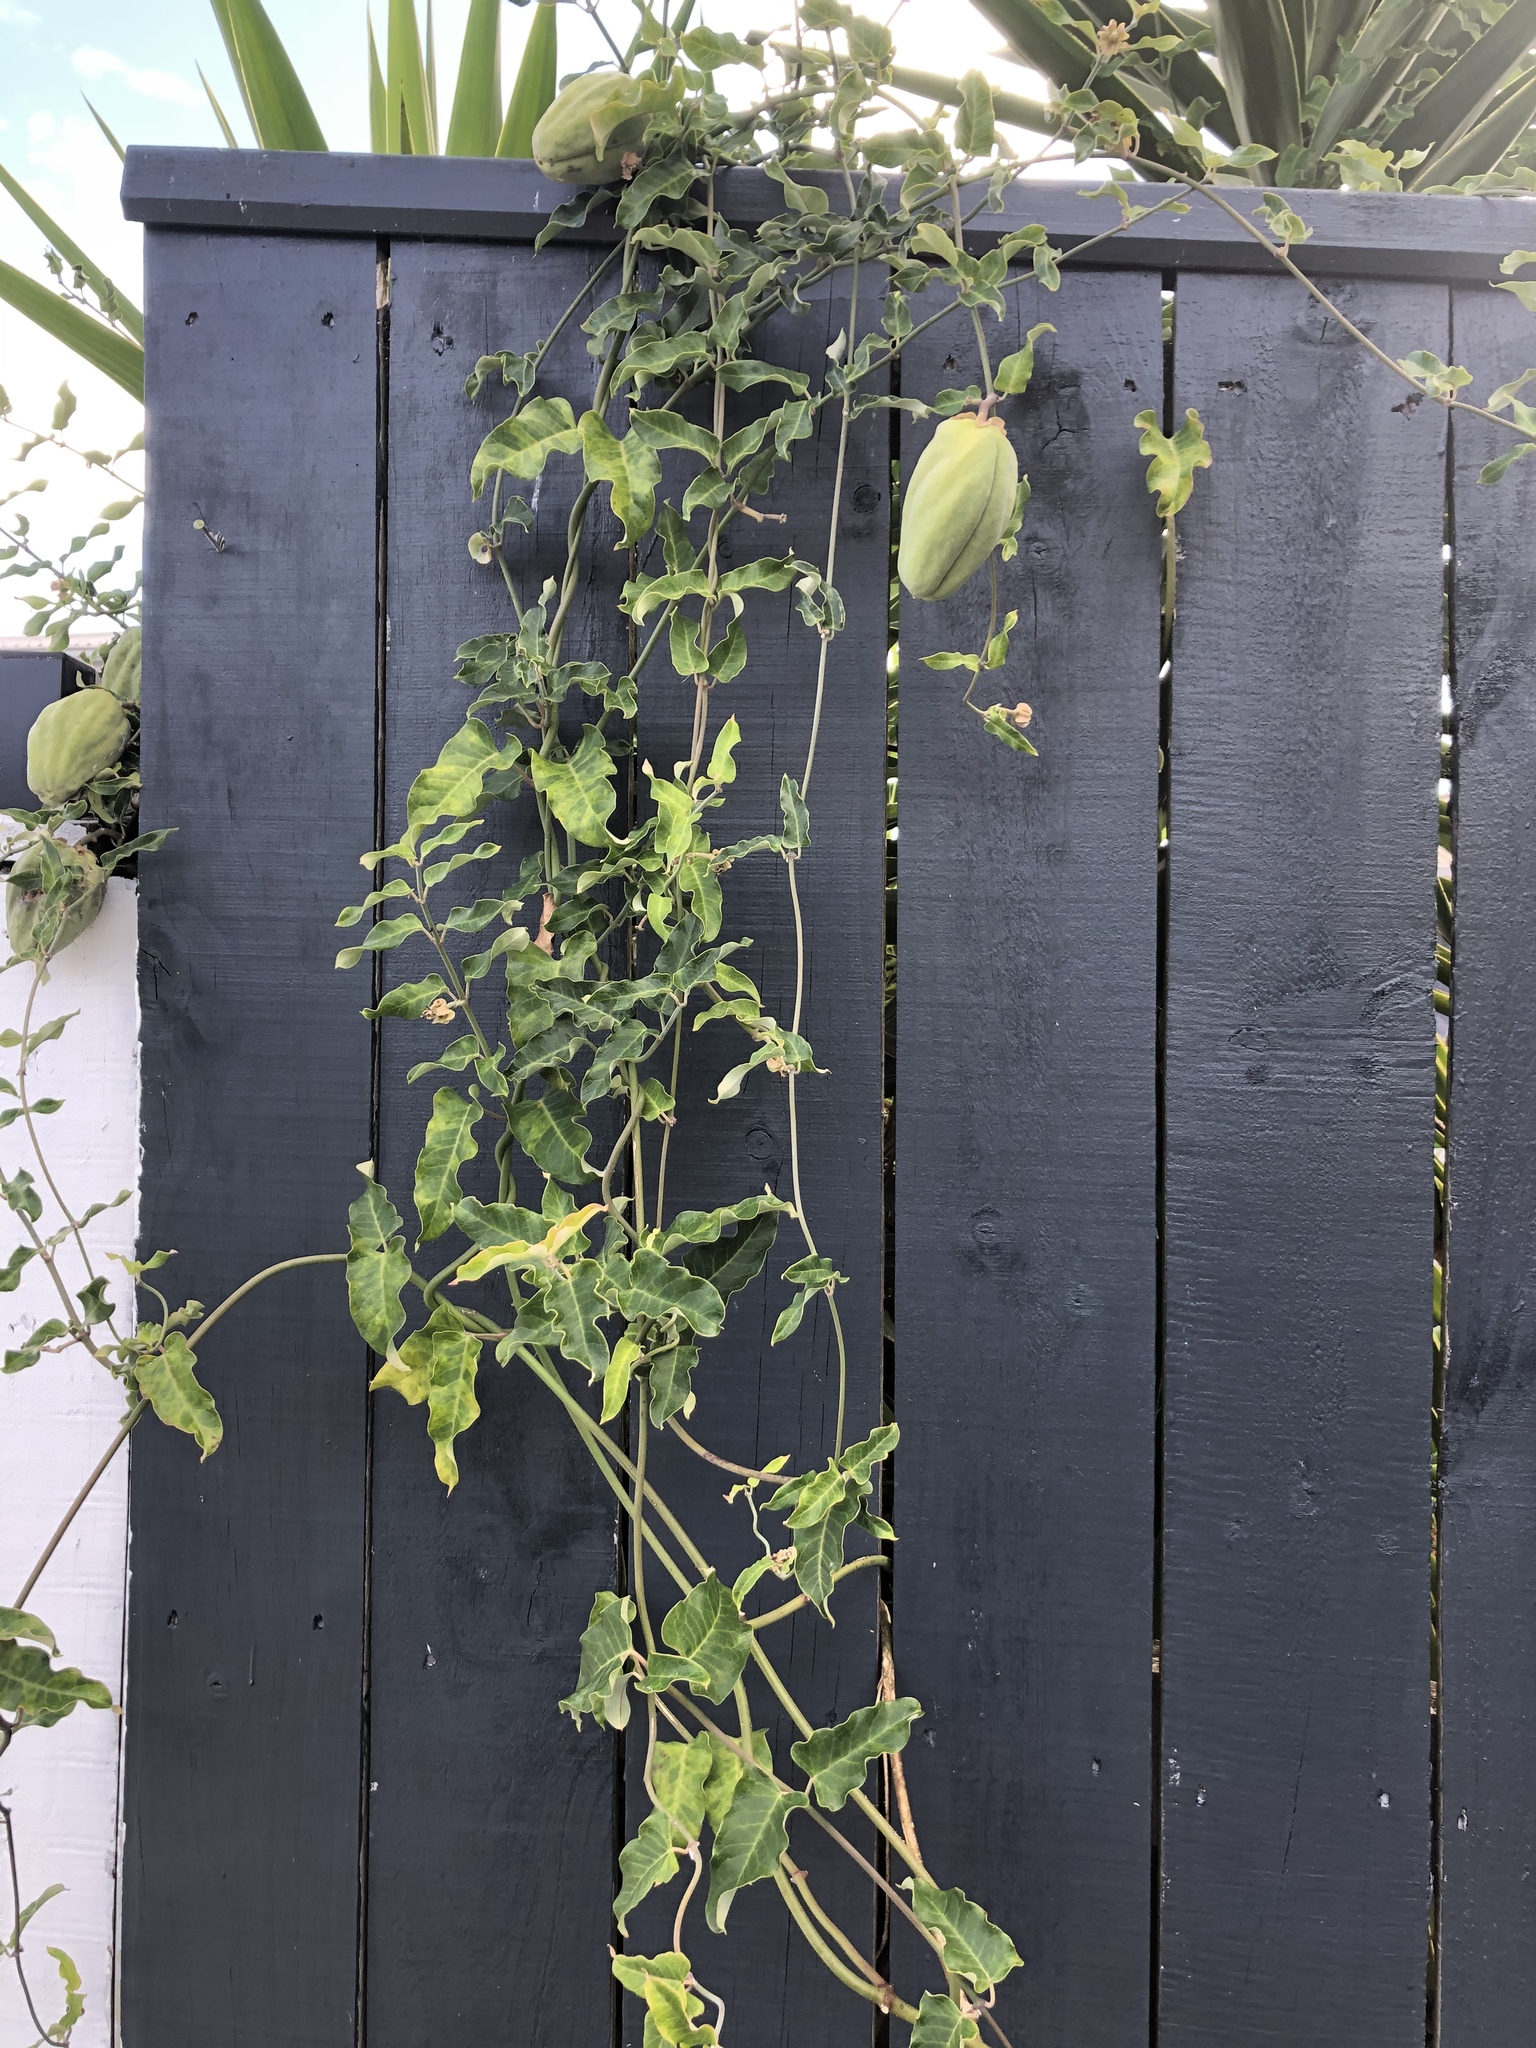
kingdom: Plantae
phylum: Tracheophyta
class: Magnoliopsida
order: Gentianales
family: Apocynaceae
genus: Araujia
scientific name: Araujia sericifera
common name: White bladderflower
